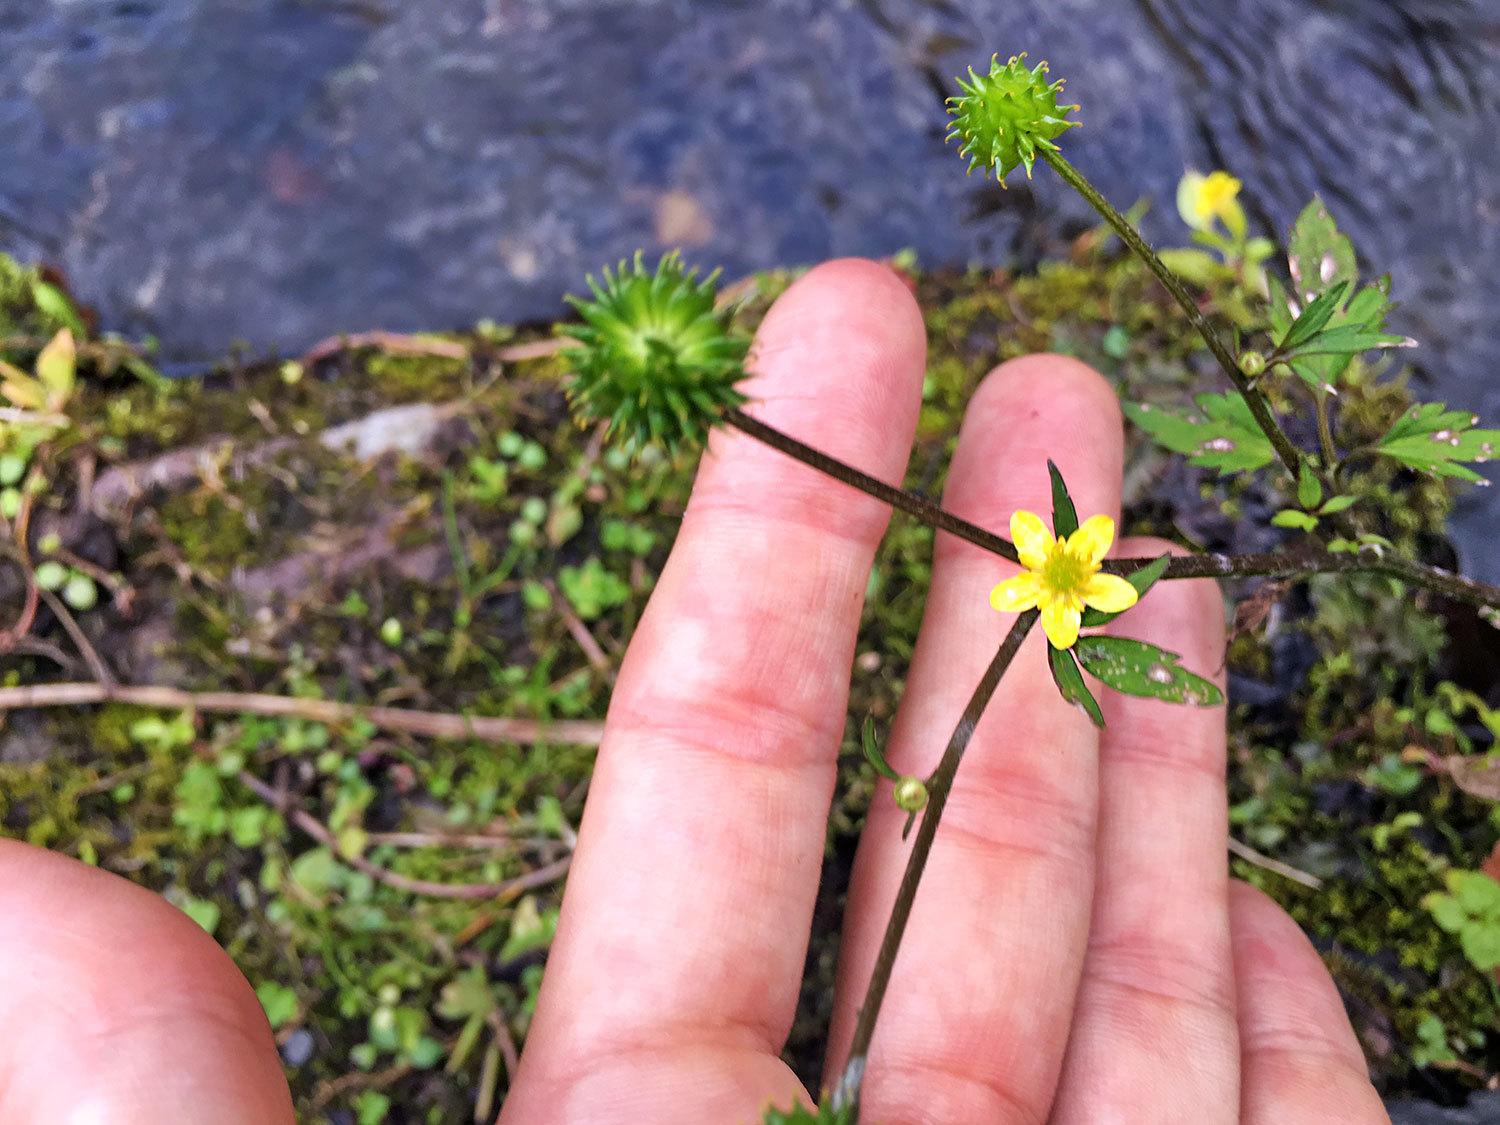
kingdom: Plantae
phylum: Tracheophyta
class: Magnoliopsida
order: Ranunculales
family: Ranunculaceae
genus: Ranunculus
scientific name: Ranunculus silerifolius
